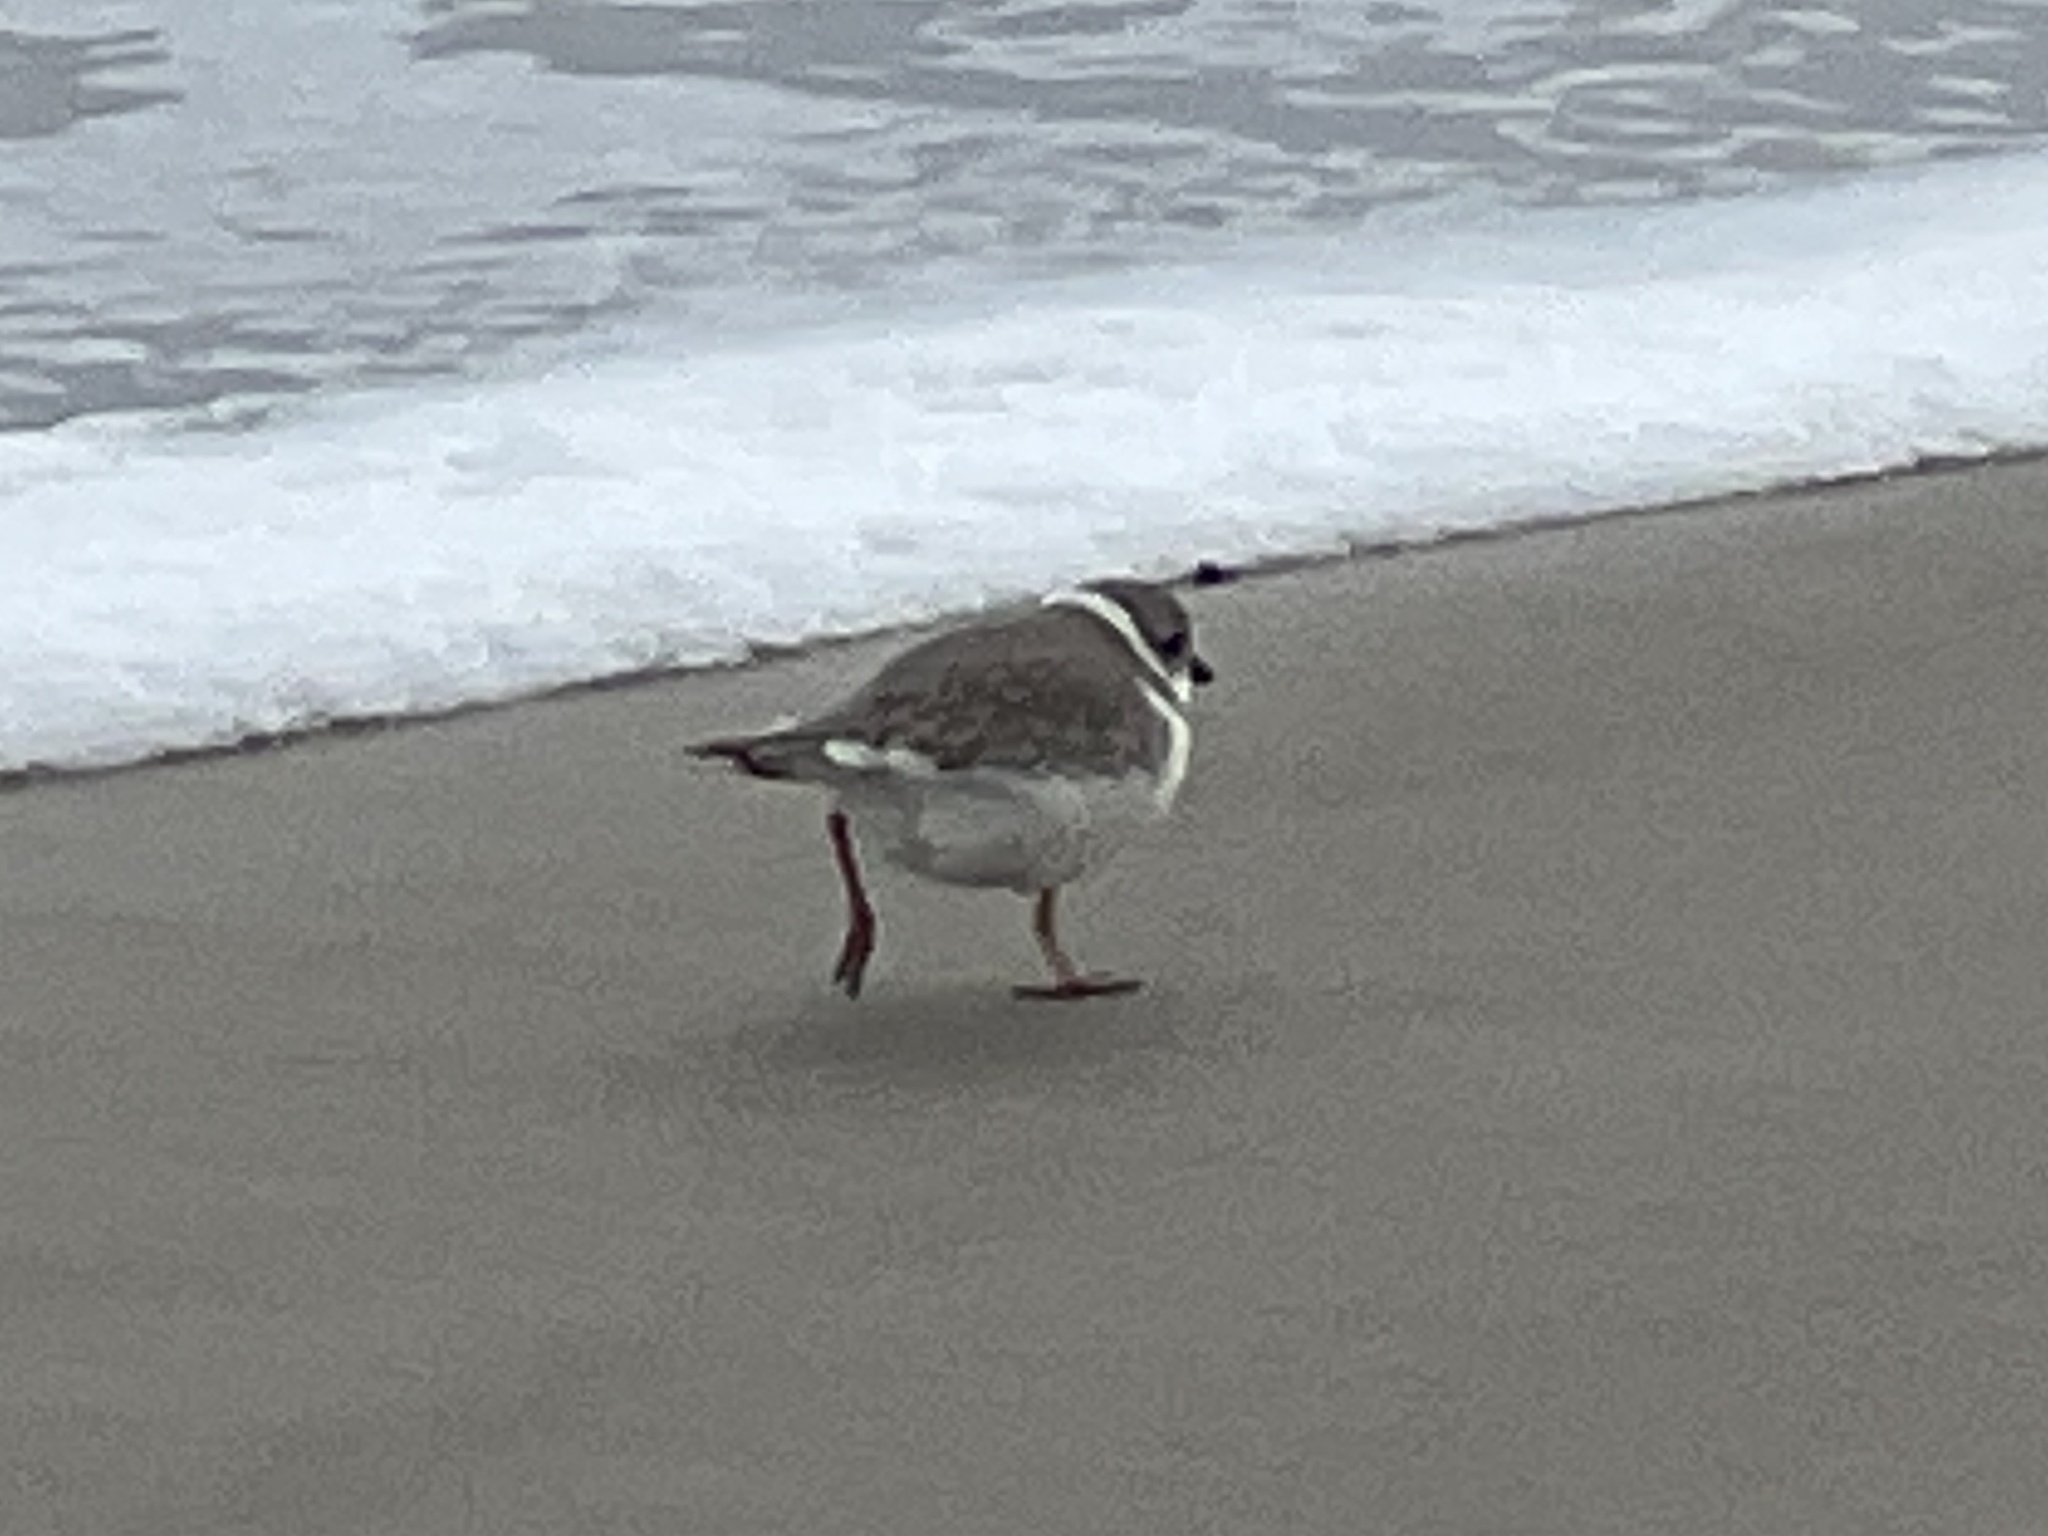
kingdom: Animalia
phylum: Chordata
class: Aves
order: Charadriiformes
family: Charadriidae
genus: Charadrius
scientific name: Charadrius melodus
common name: Piping plover
